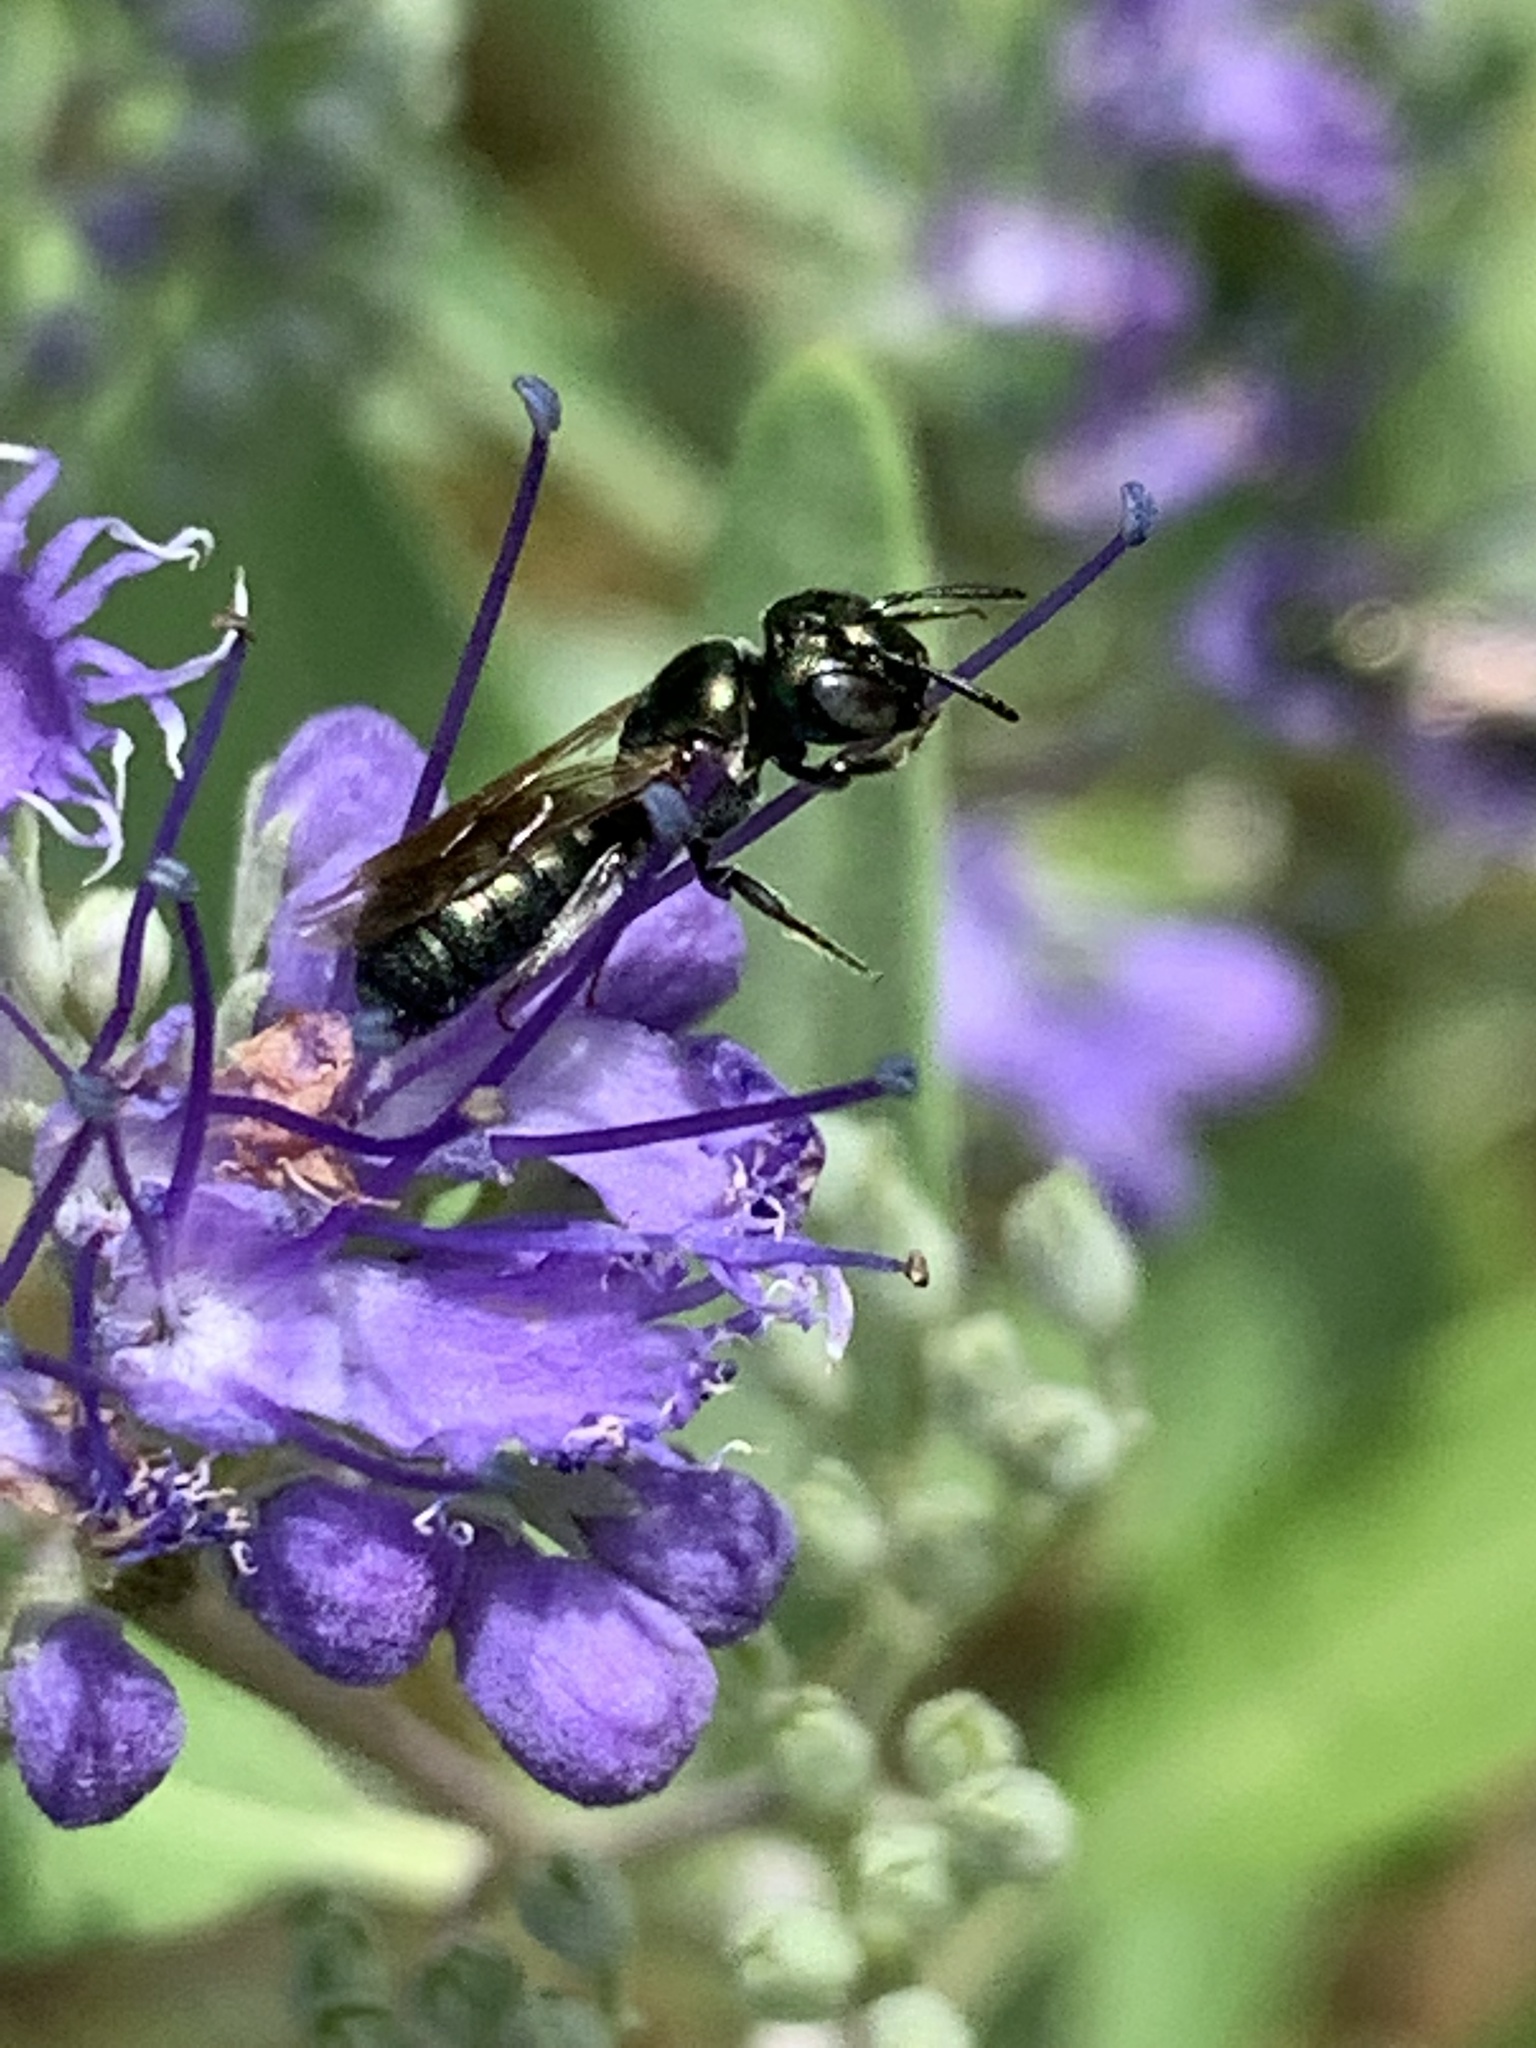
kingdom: Animalia
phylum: Arthropoda
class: Insecta
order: Hymenoptera
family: Apidae
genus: Zadontomerus
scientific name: Zadontomerus
